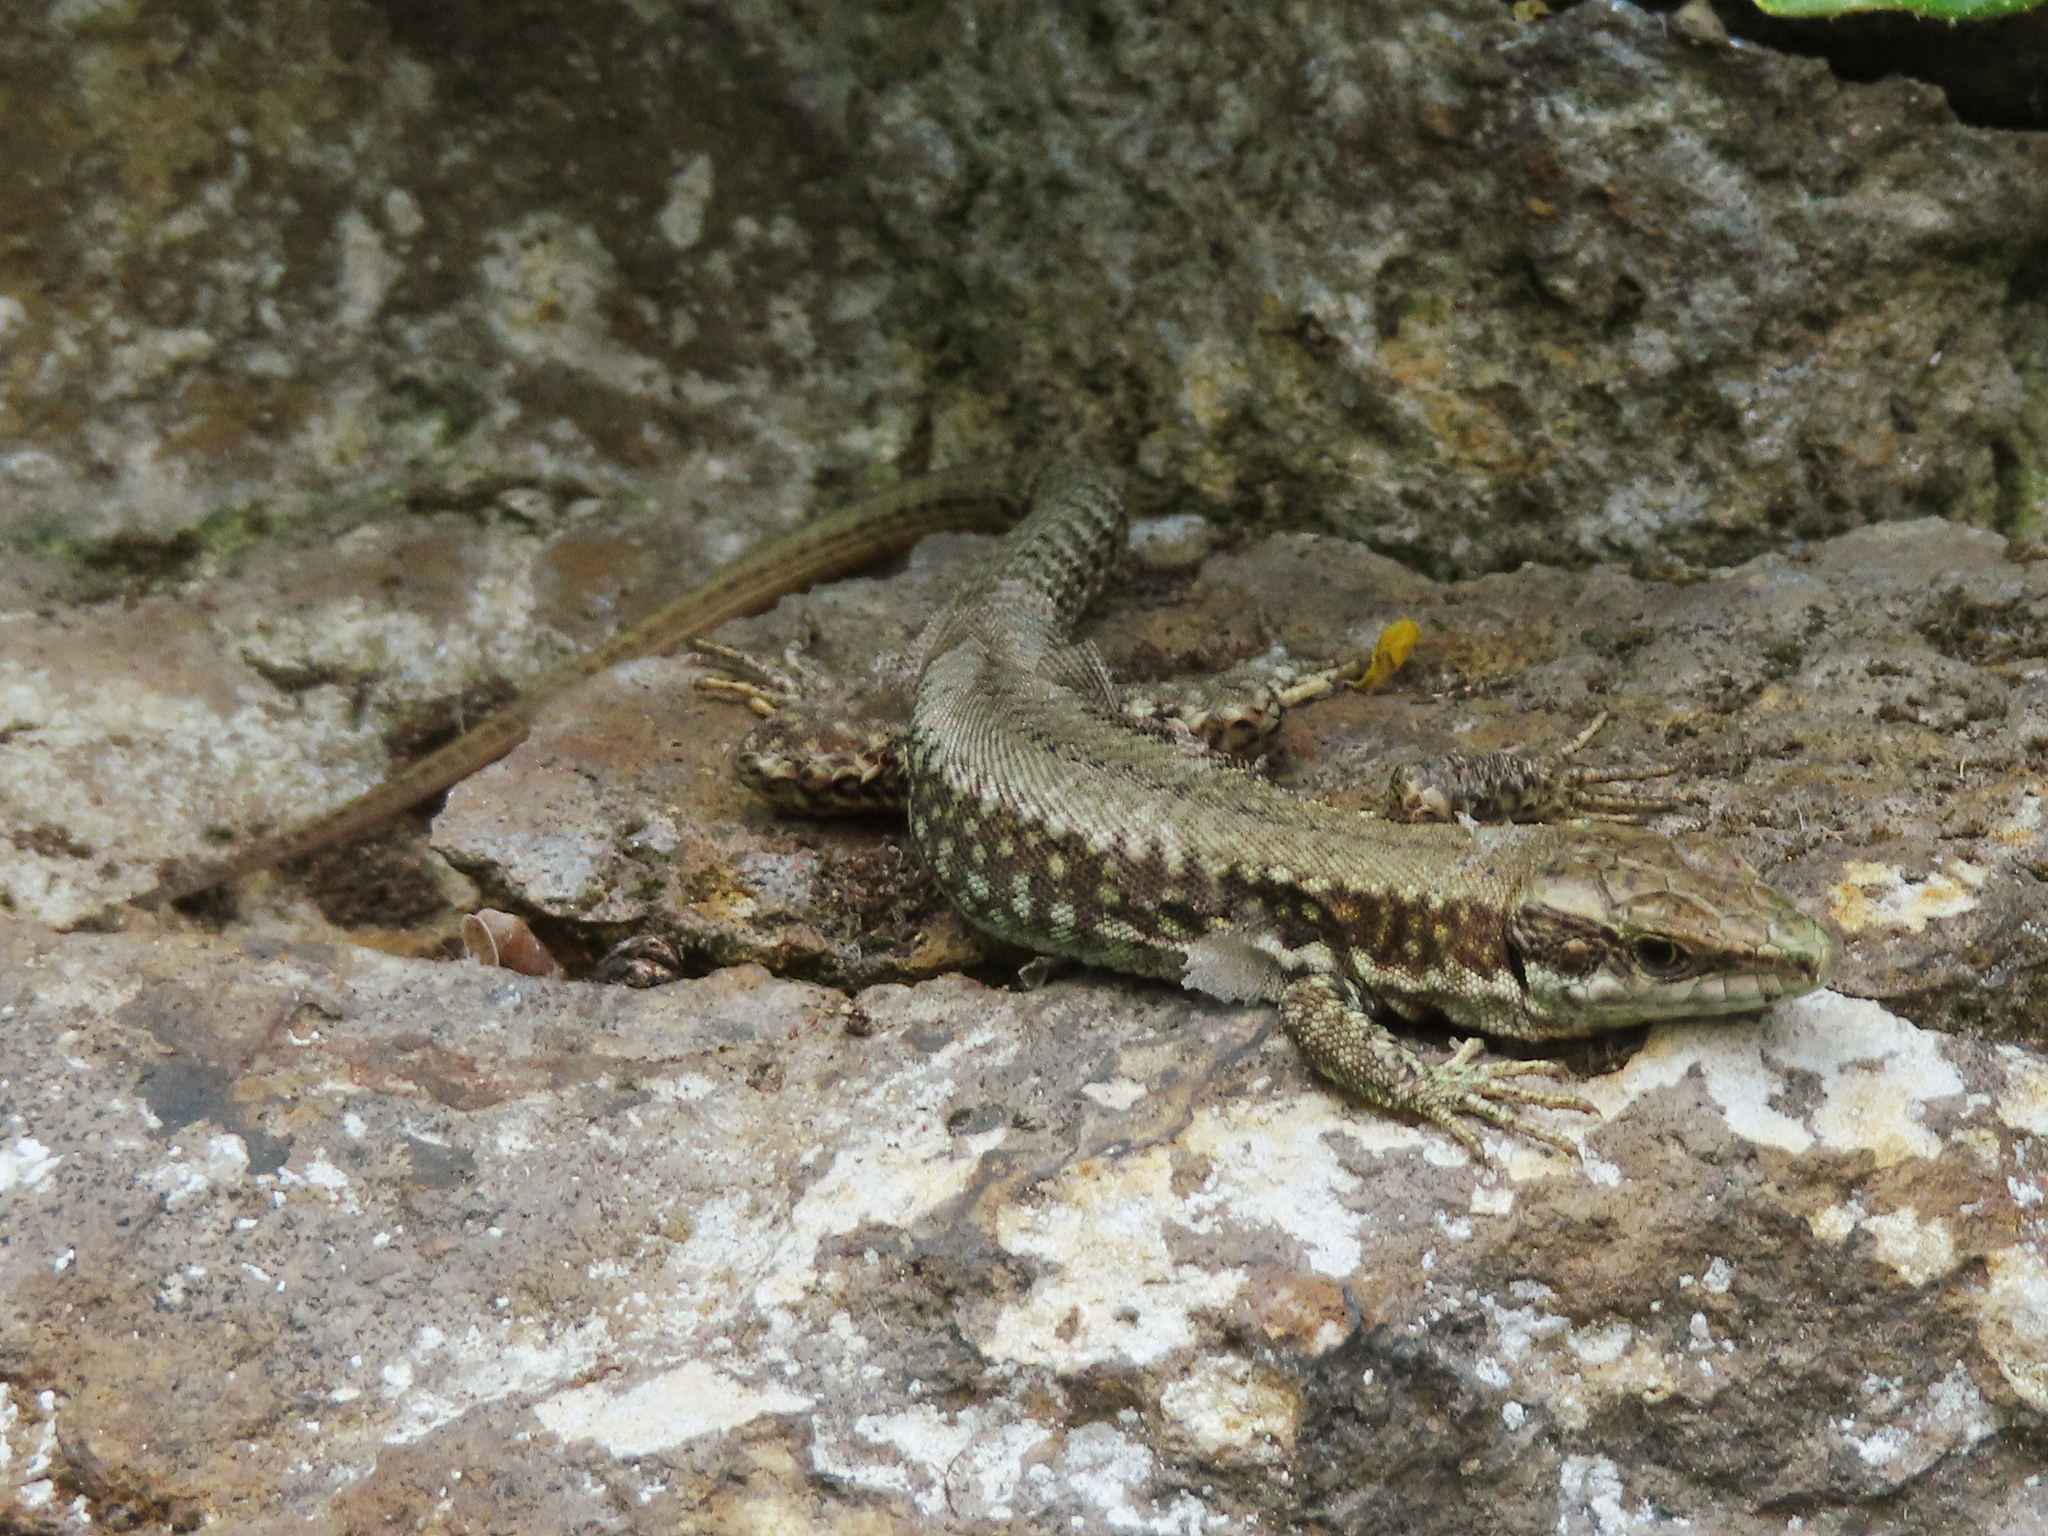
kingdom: Animalia
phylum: Chordata
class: Squamata
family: Lacertidae
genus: Podarcis
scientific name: Podarcis muralis
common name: Common wall lizard
